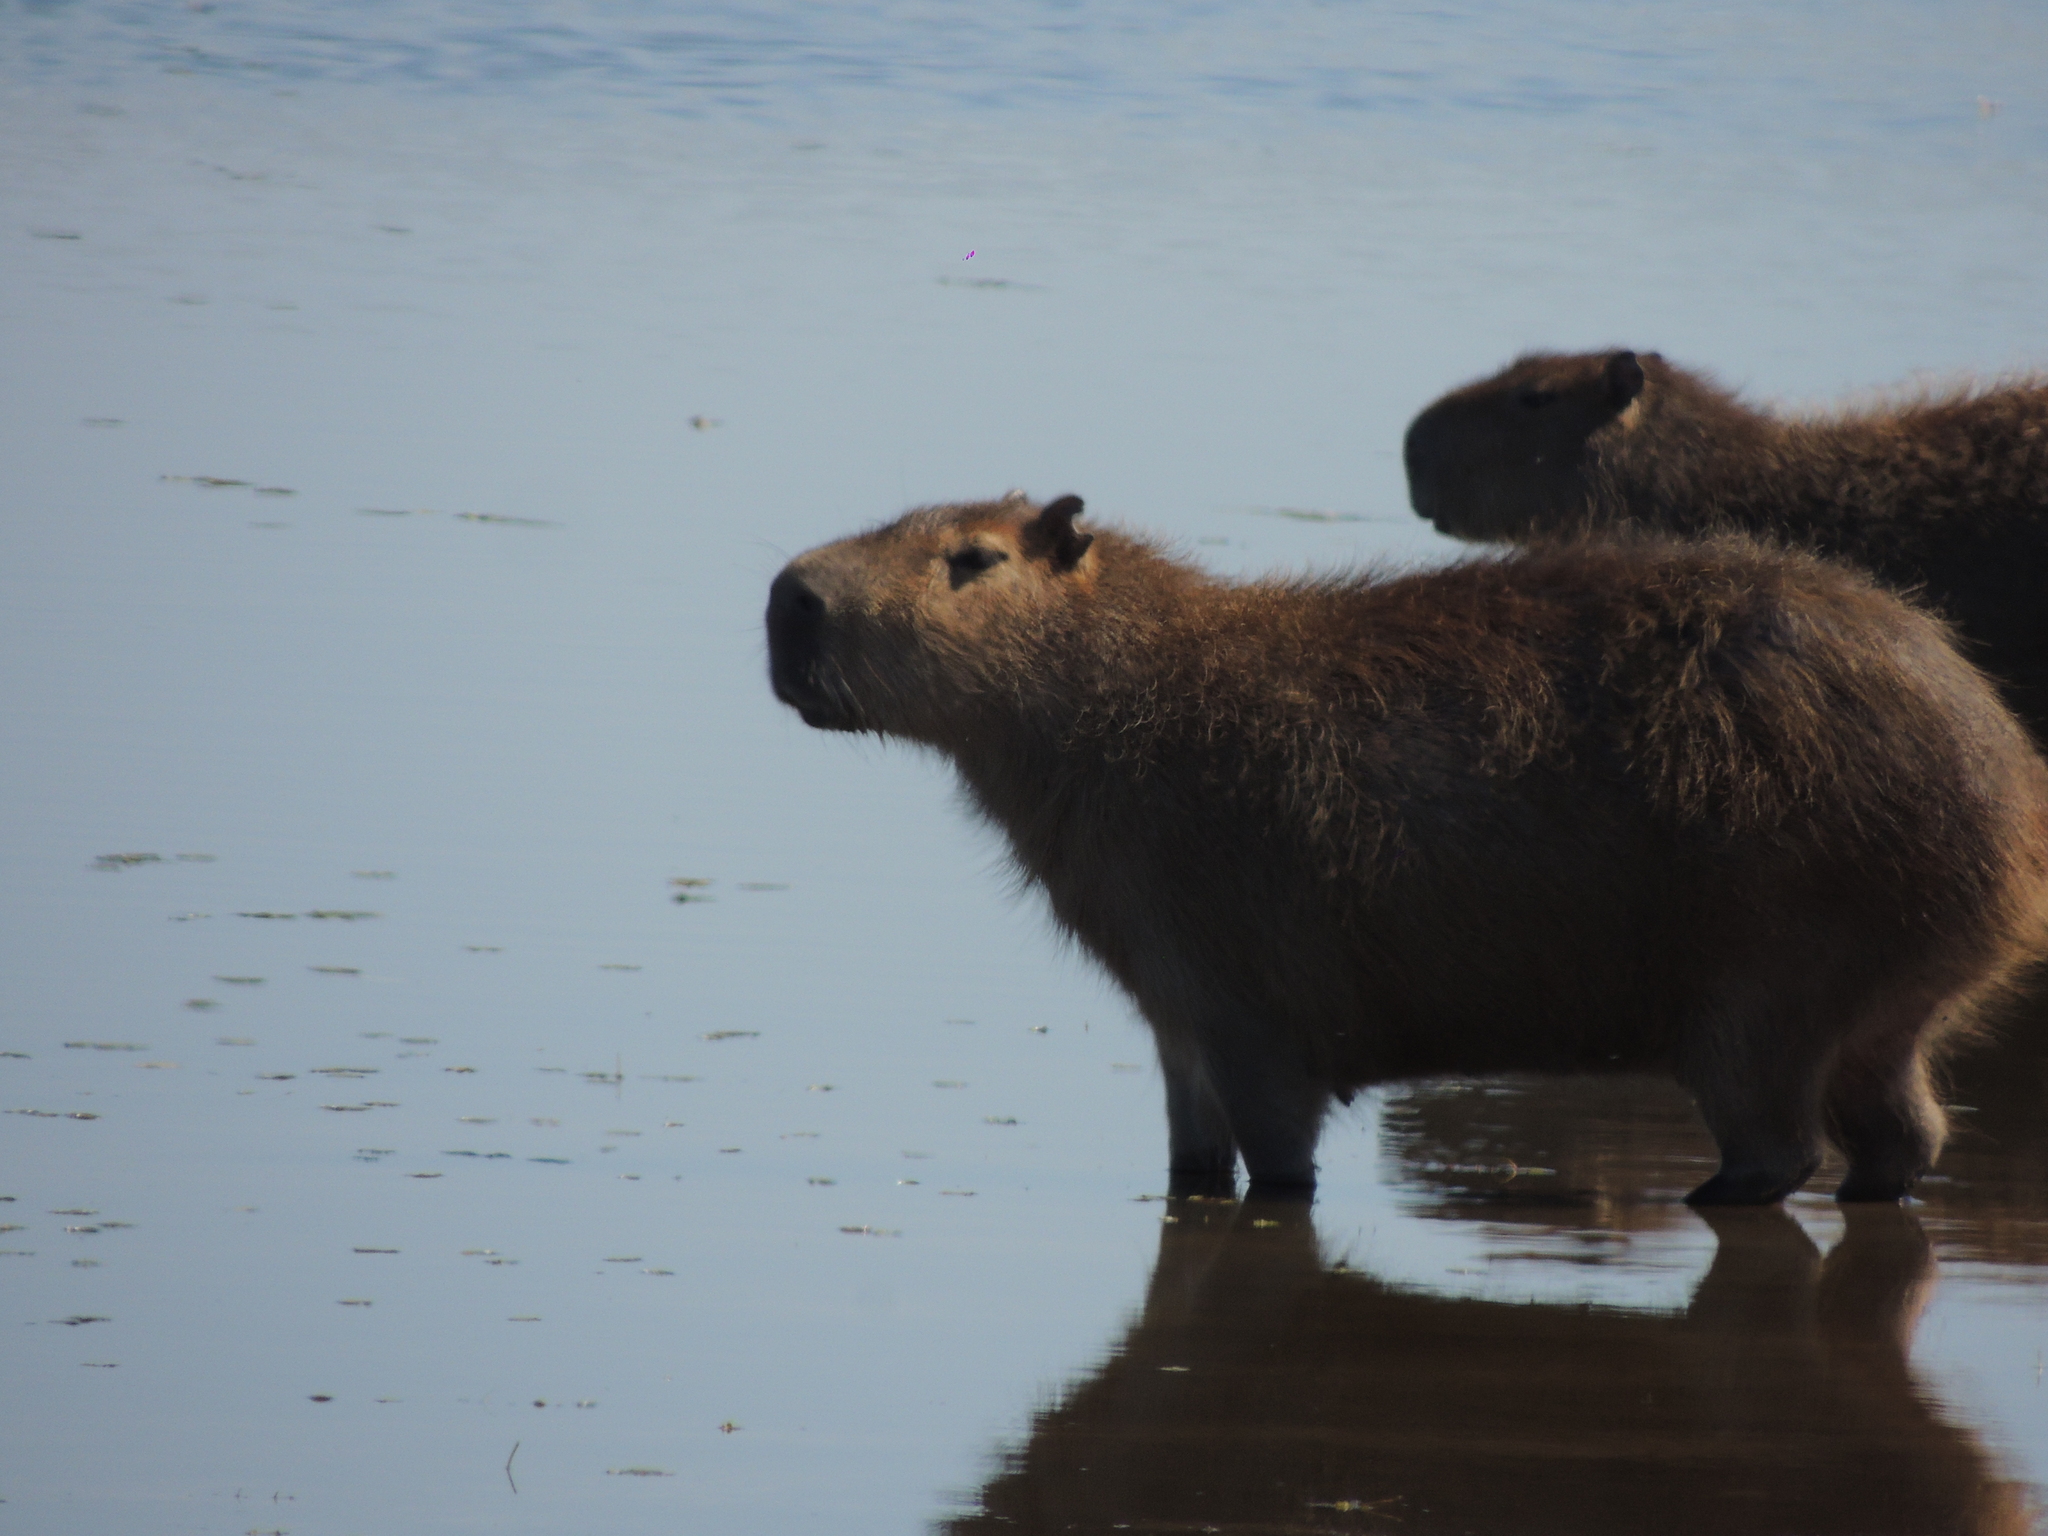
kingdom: Animalia
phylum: Chordata
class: Mammalia
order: Rodentia
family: Caviidae
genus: Hydrochoerus
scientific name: Hydrochoerus hydrochaeris
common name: Capybara
